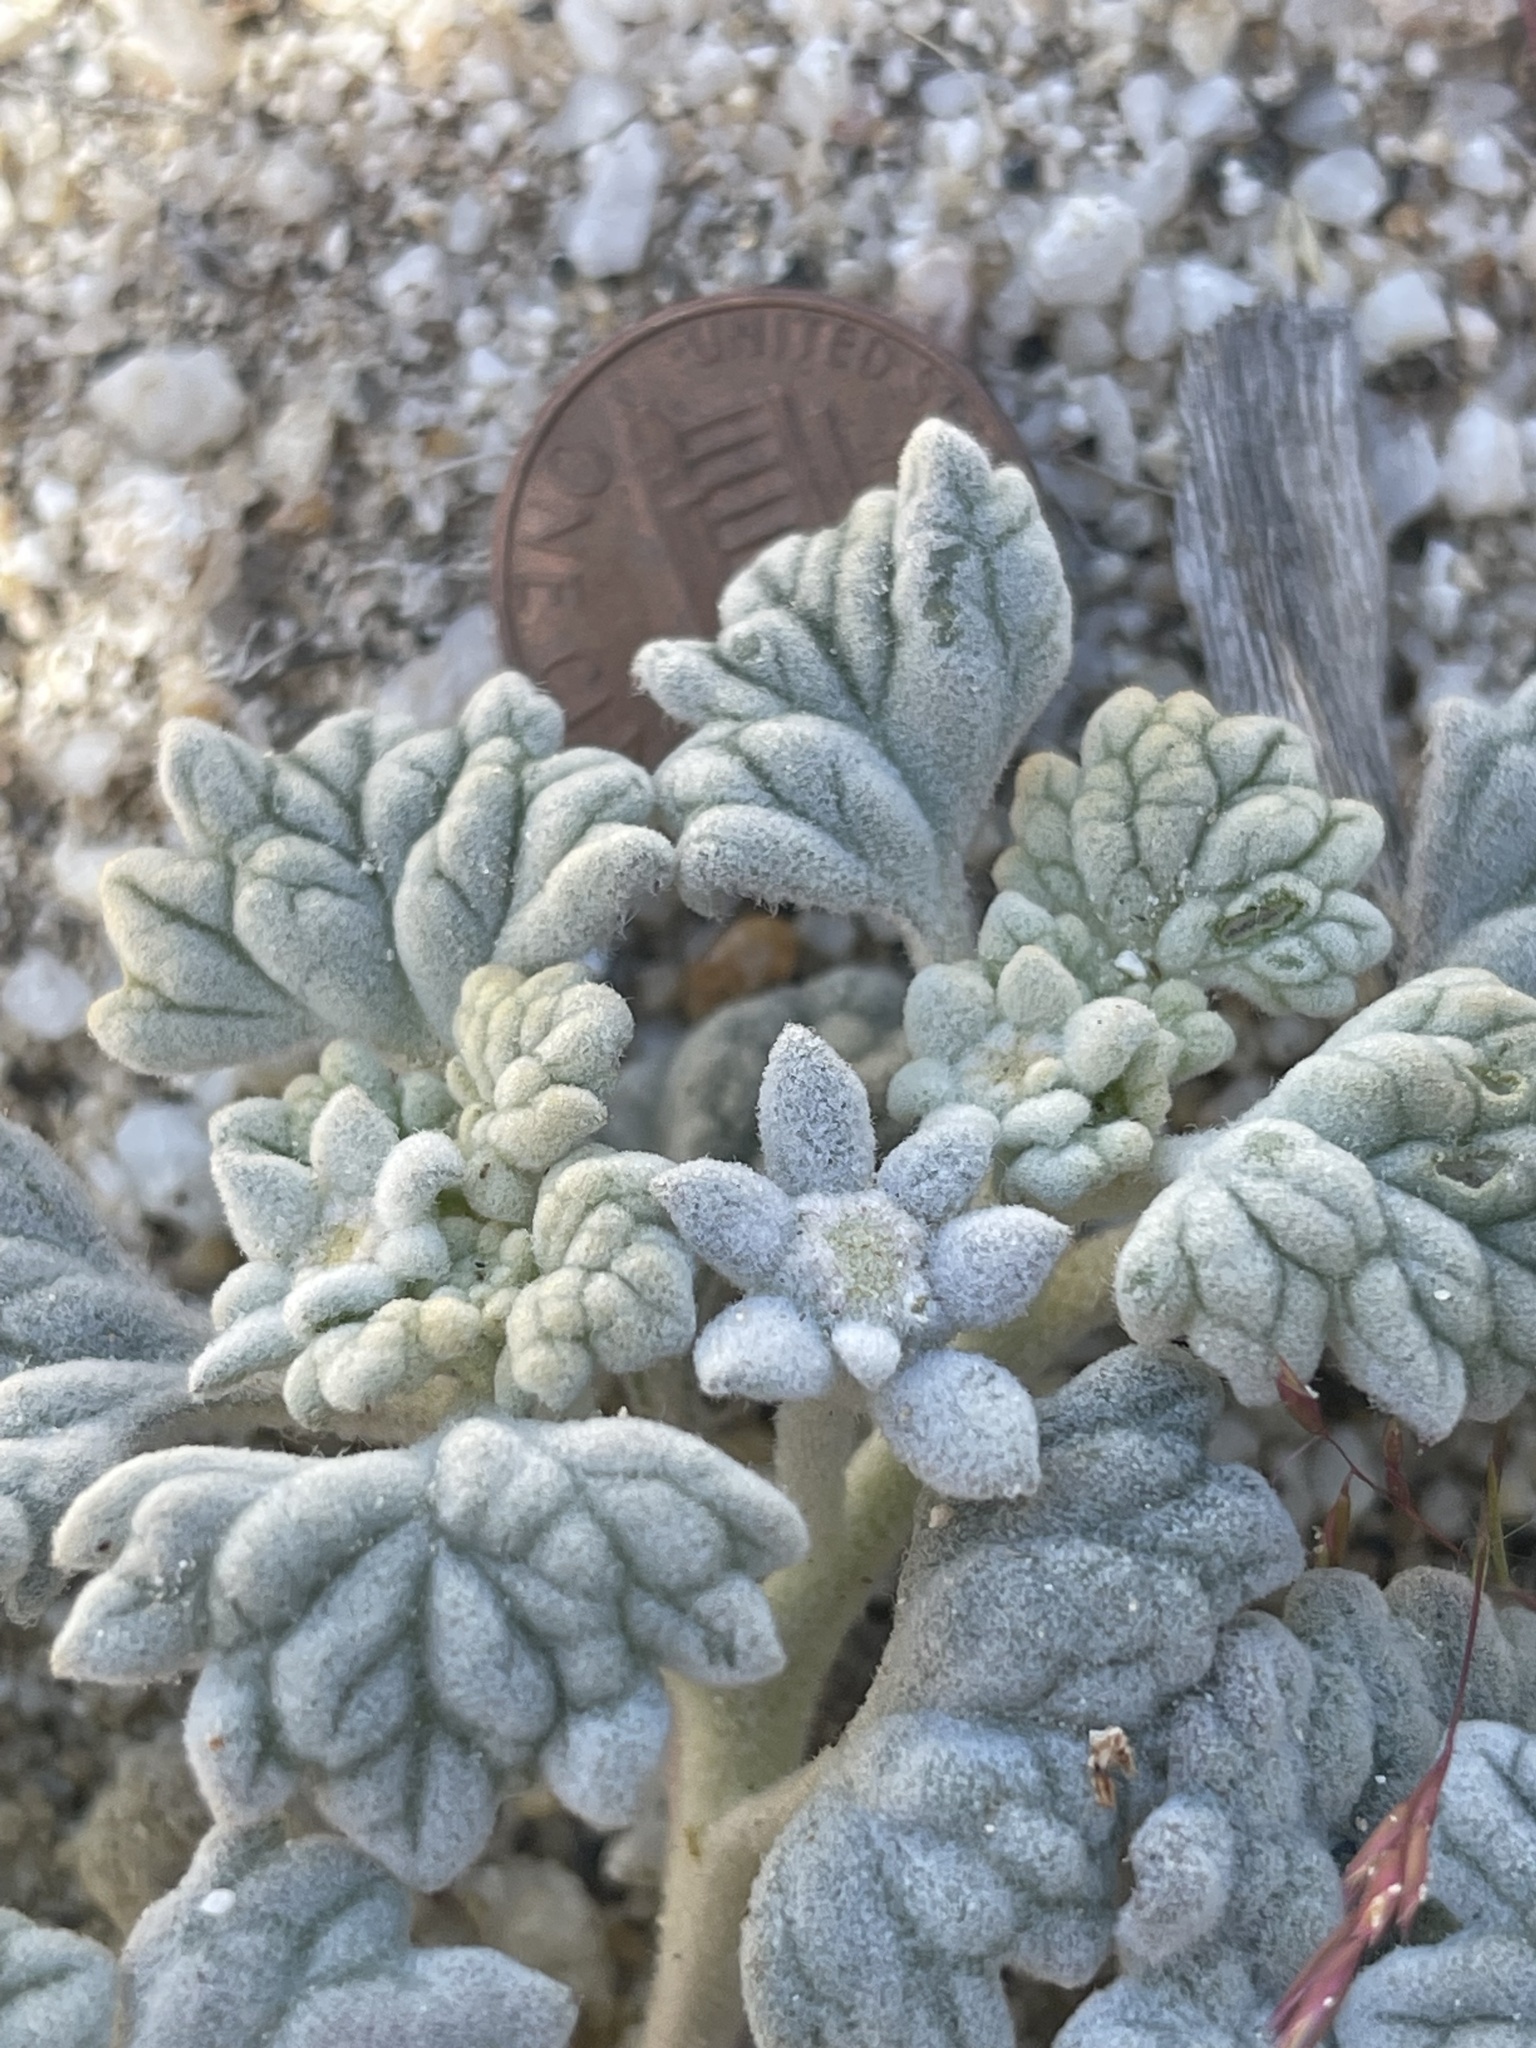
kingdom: Plantae
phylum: Tracheophyta
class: Magnoliopsida
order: Asterales
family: Asteraceae
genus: Psathyrotes
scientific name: Psathyrotes ramosissima
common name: Turtleback
